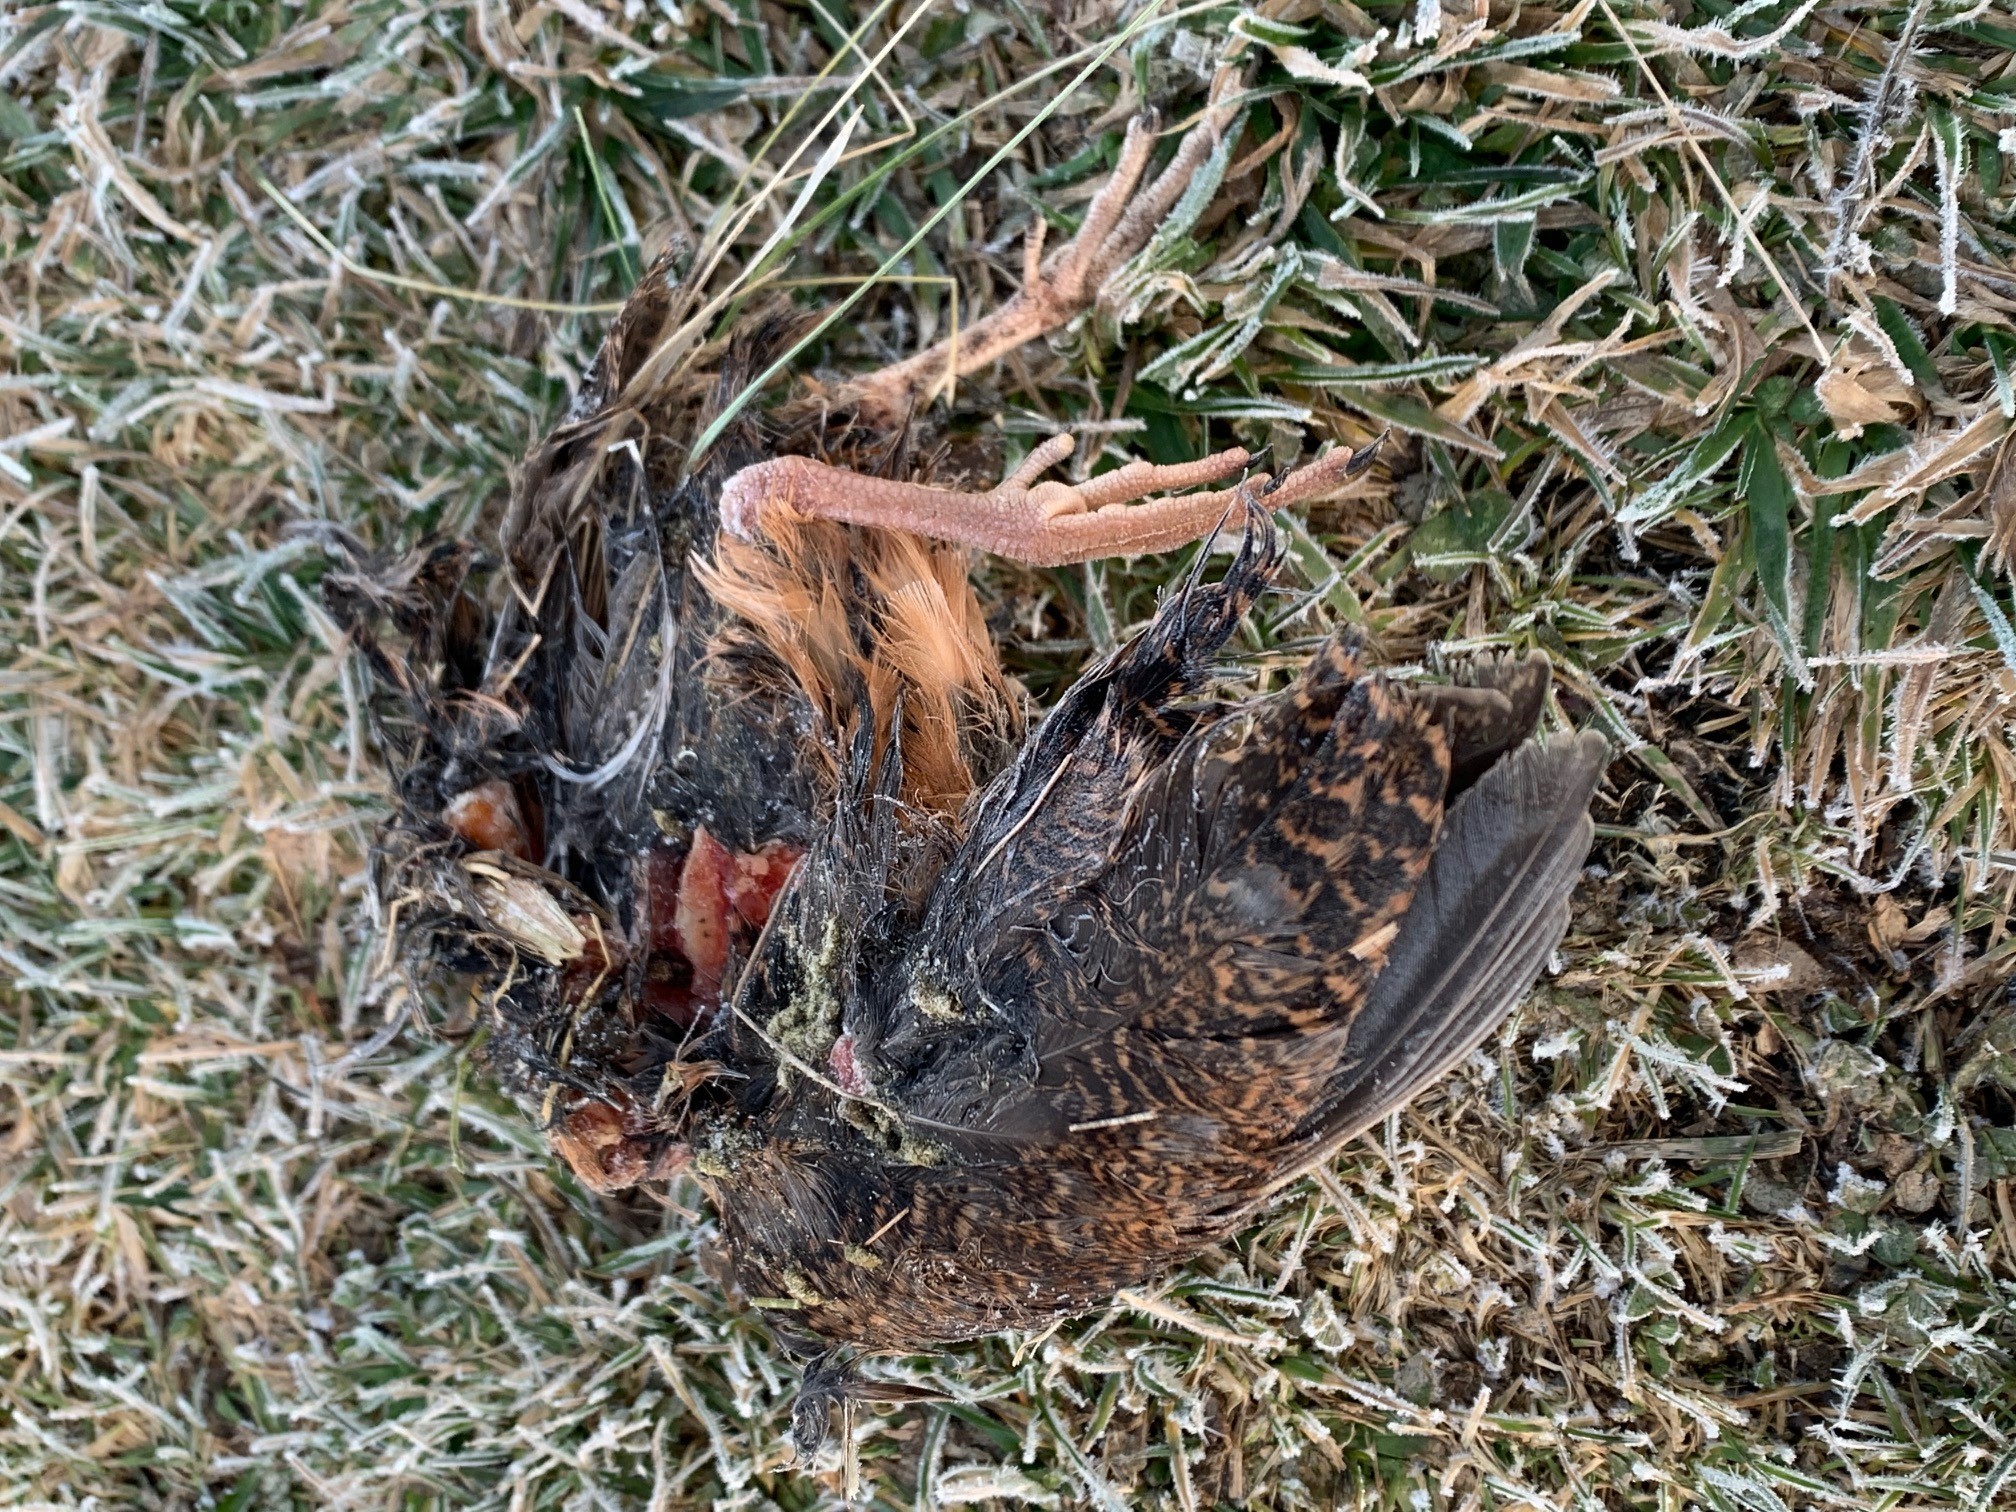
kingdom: Animalia
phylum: Chordata
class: Aves
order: Charadriiformes
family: Scolopacidae
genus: Scolopax
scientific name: Scolopax minor
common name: American woodcock
